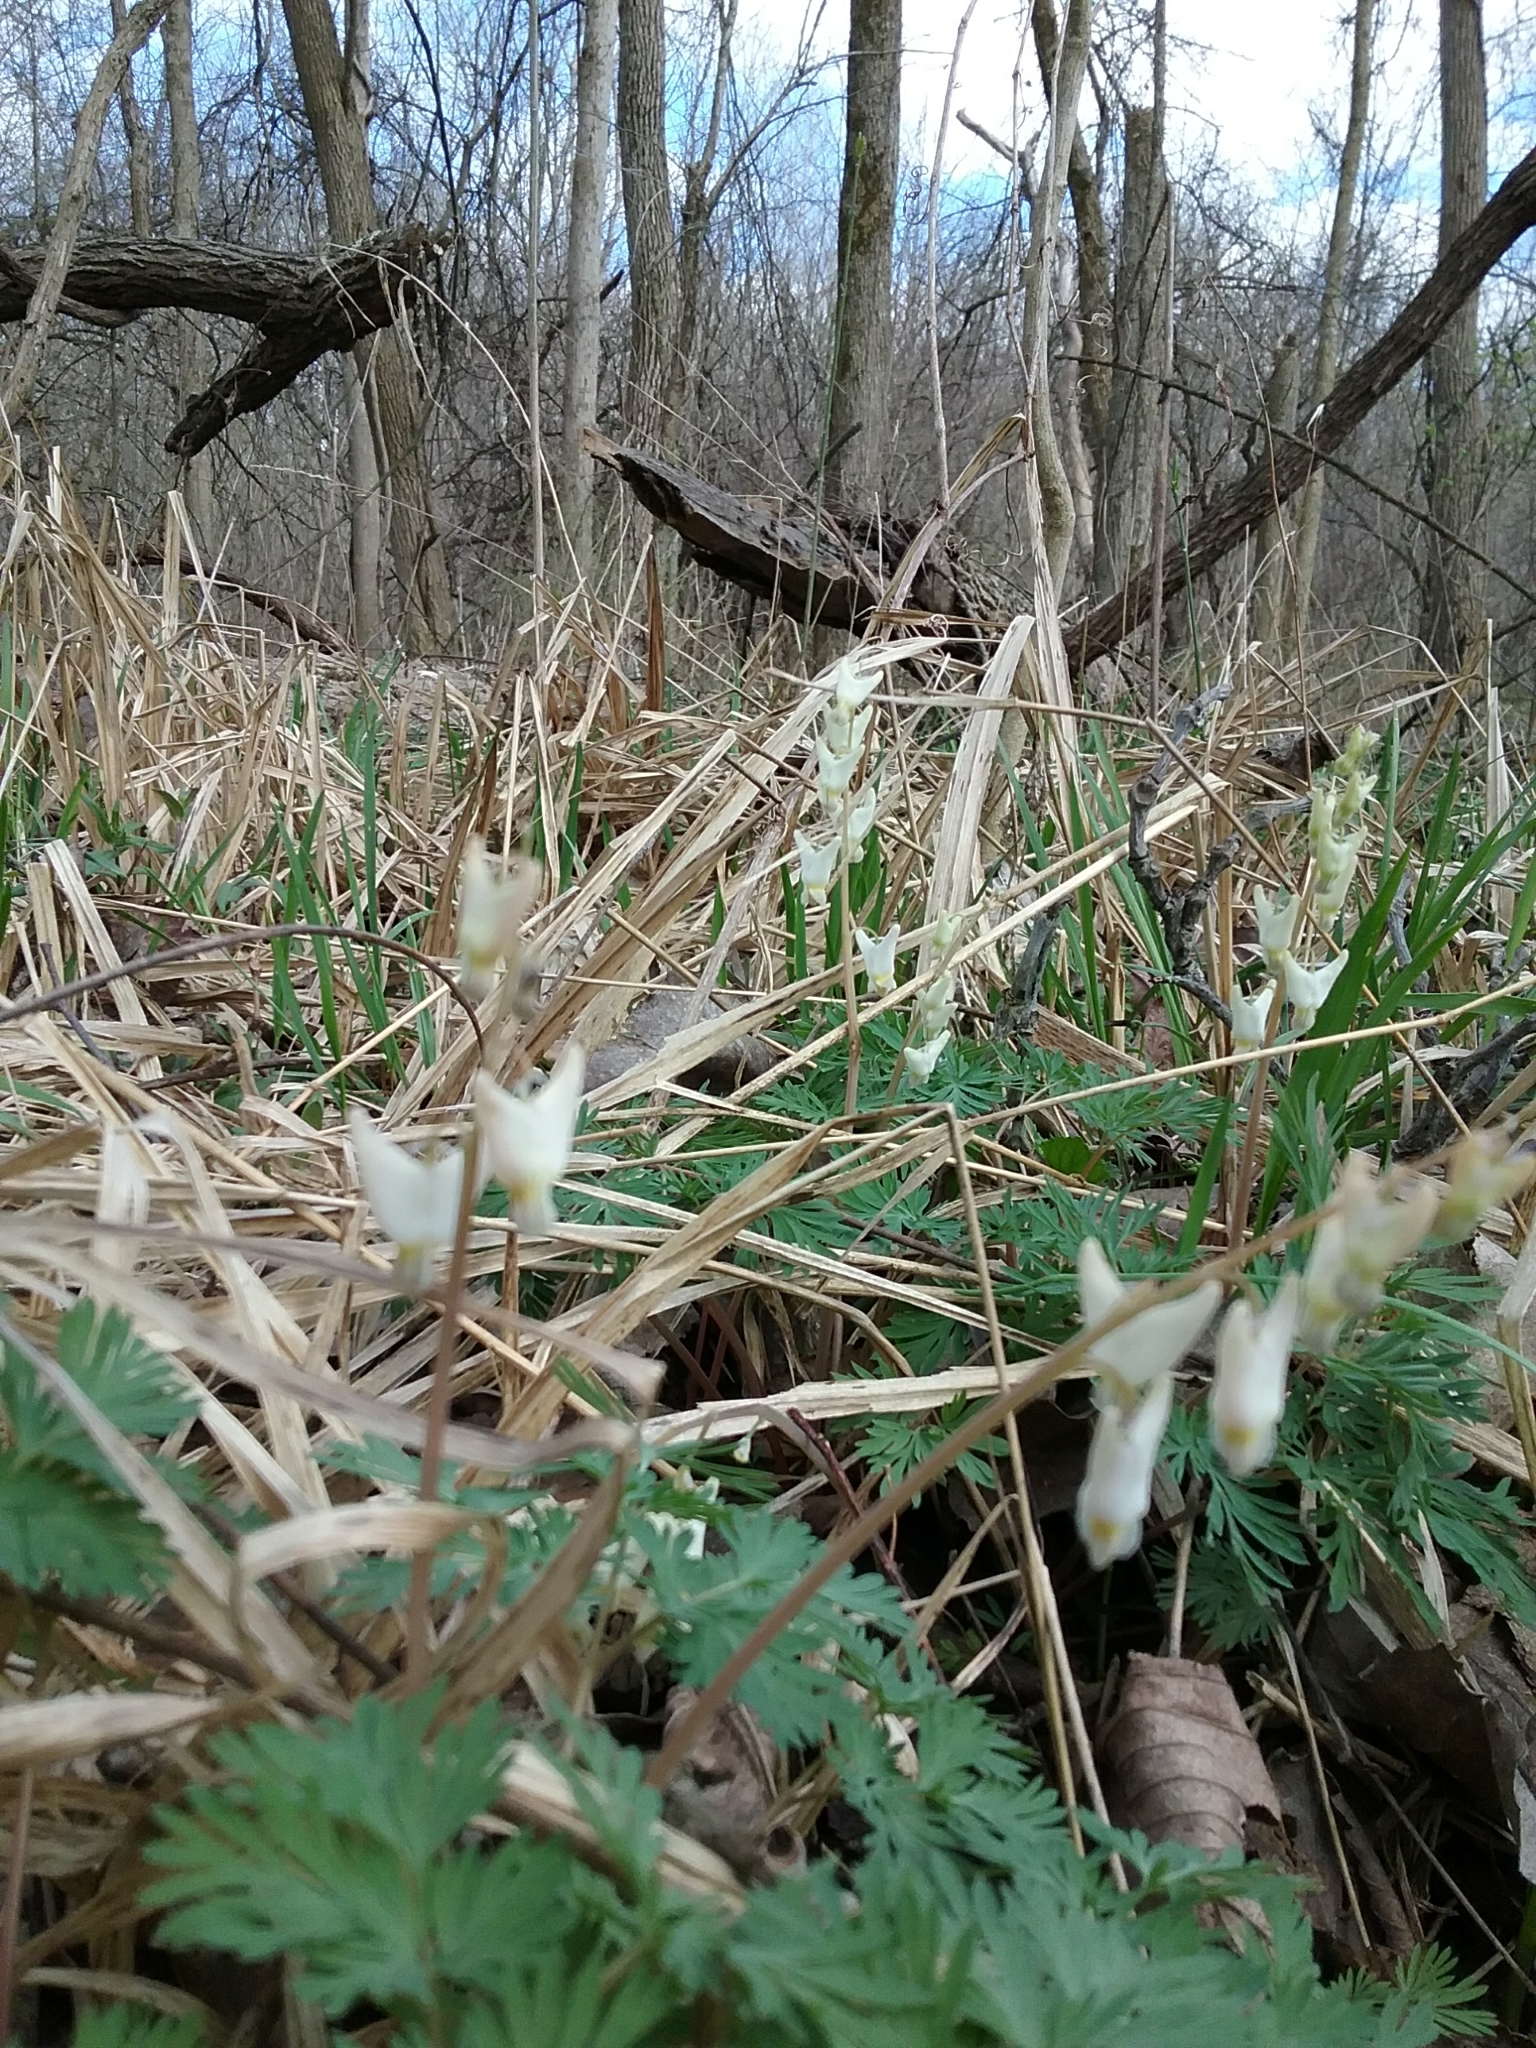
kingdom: Plantae
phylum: Tracheophyta
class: Magnoliopsida
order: Ranunculales
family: Papaveraceae
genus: Dicentra
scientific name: Dicentra cucullaria
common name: Dutchman's breeches
